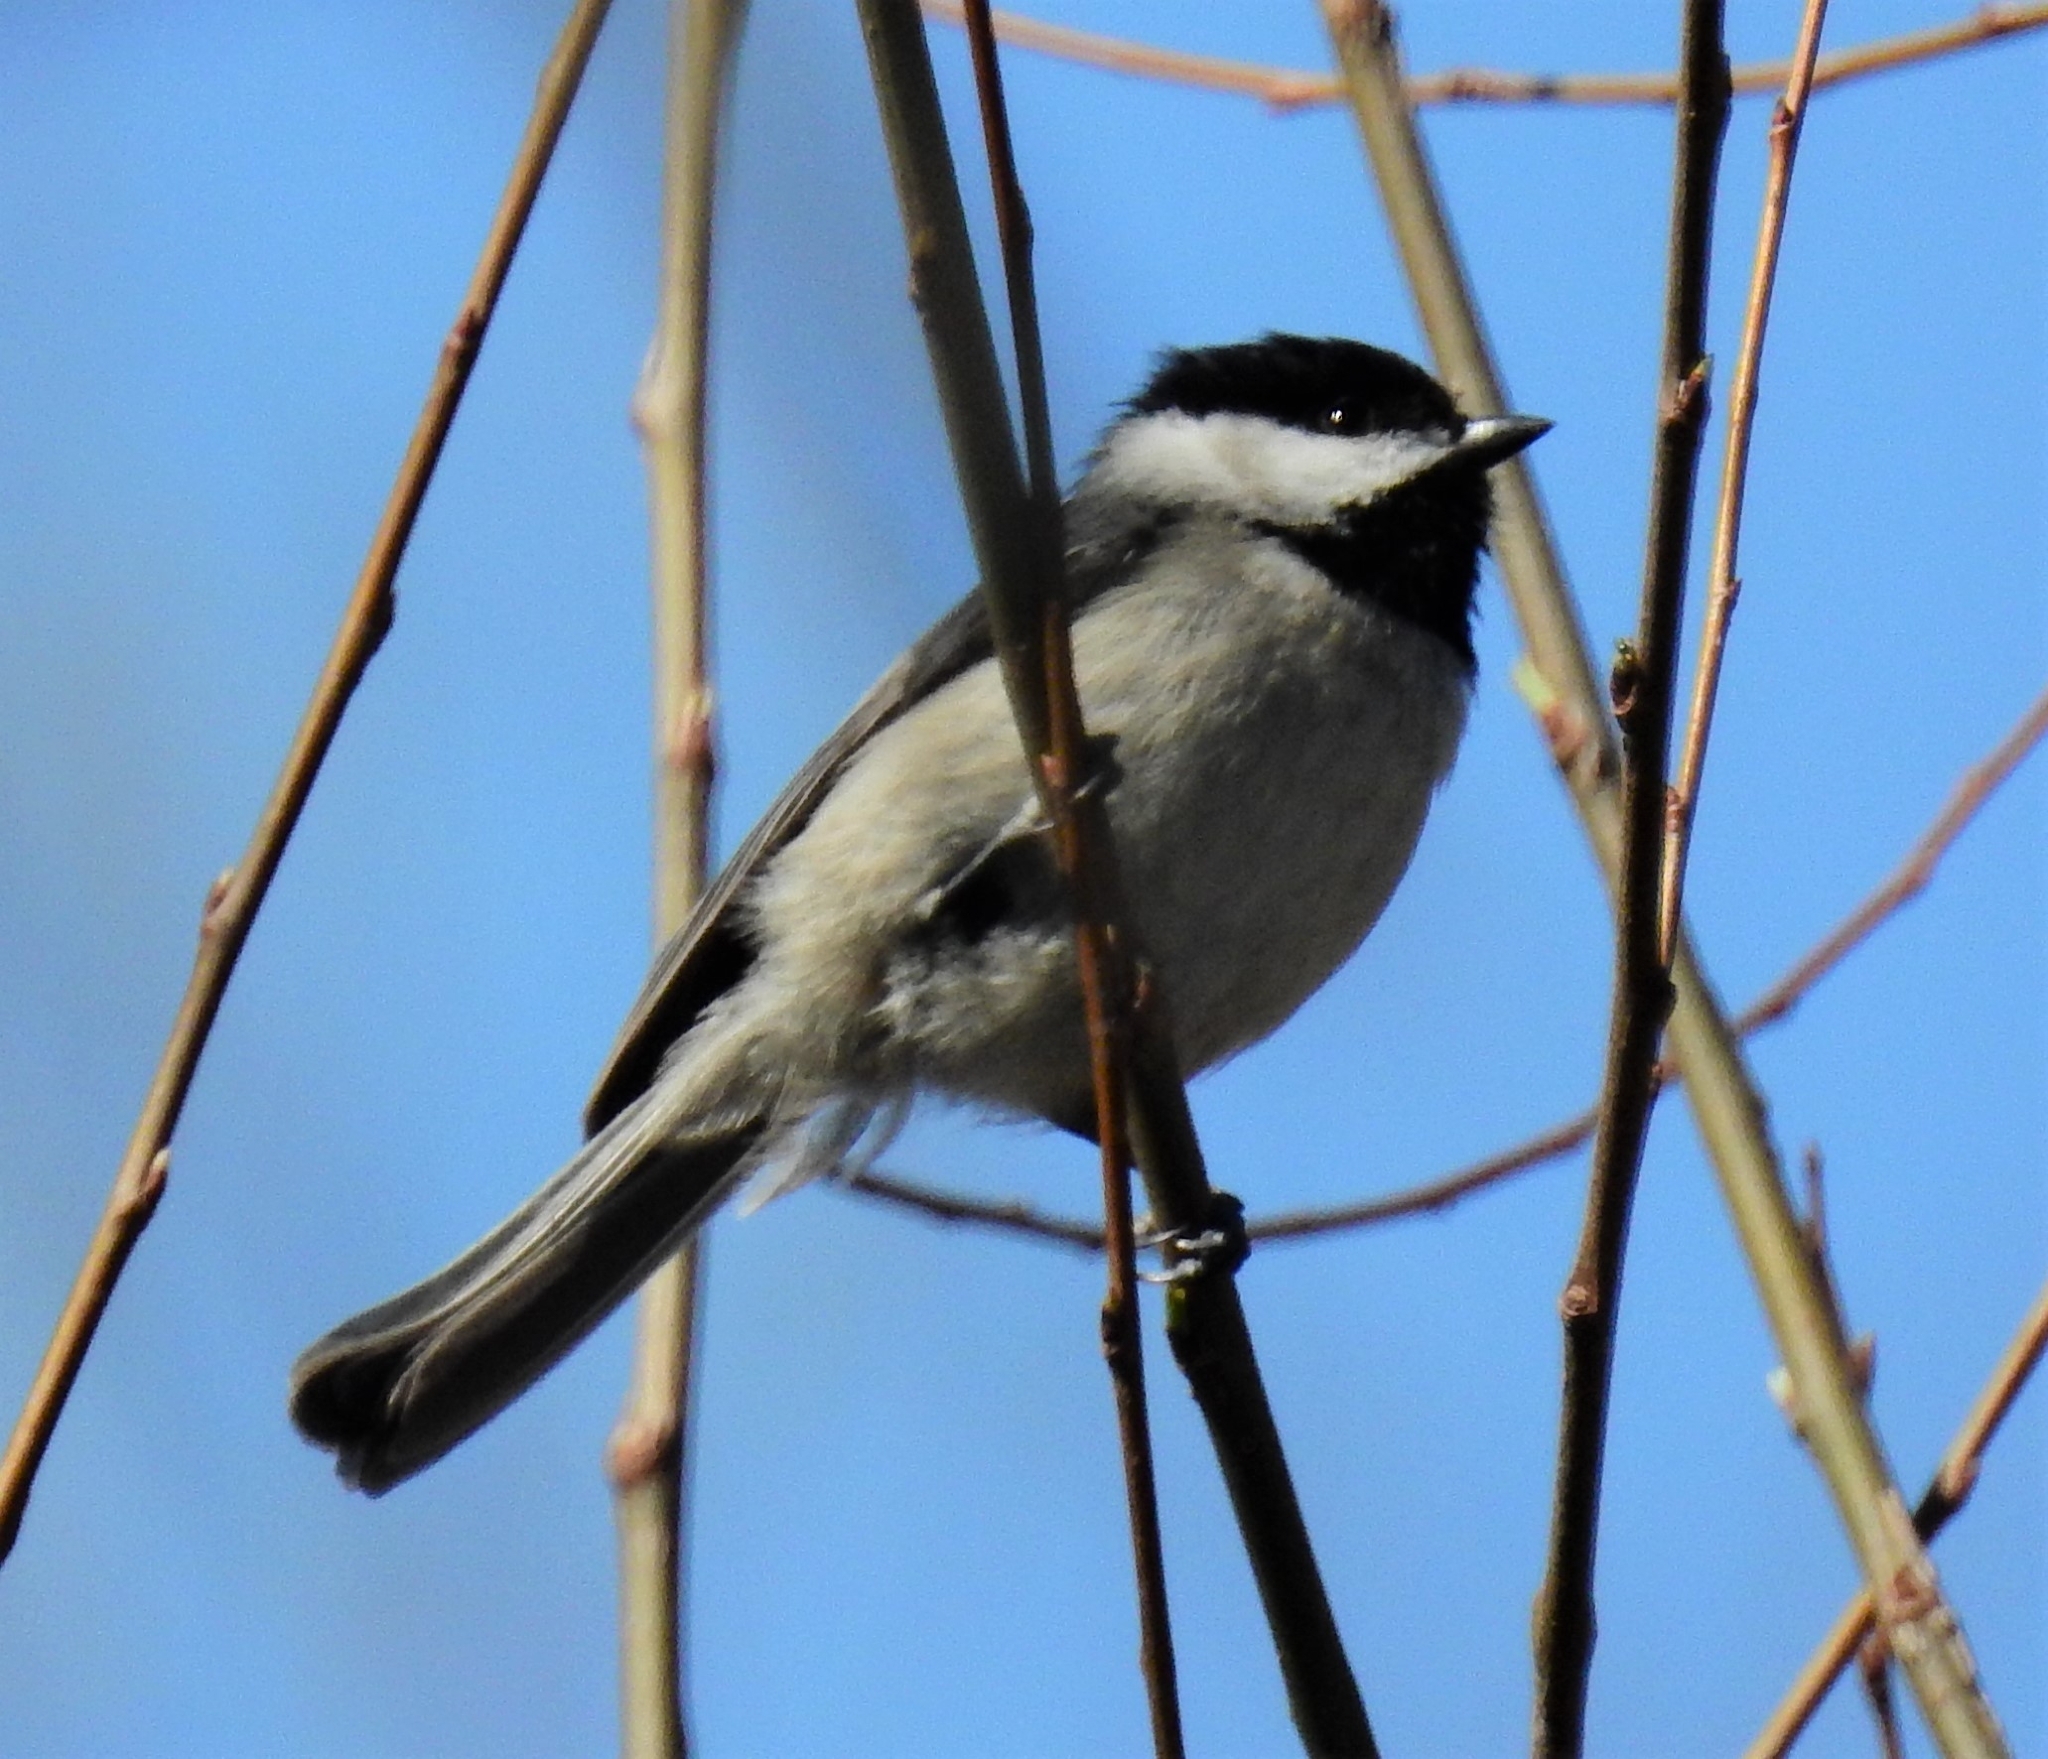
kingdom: Animalia
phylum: Chordata
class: Aves
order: Passeriformes
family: Paridae
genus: Poecile
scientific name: Poecile carolinensis
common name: Carolina chickadee
